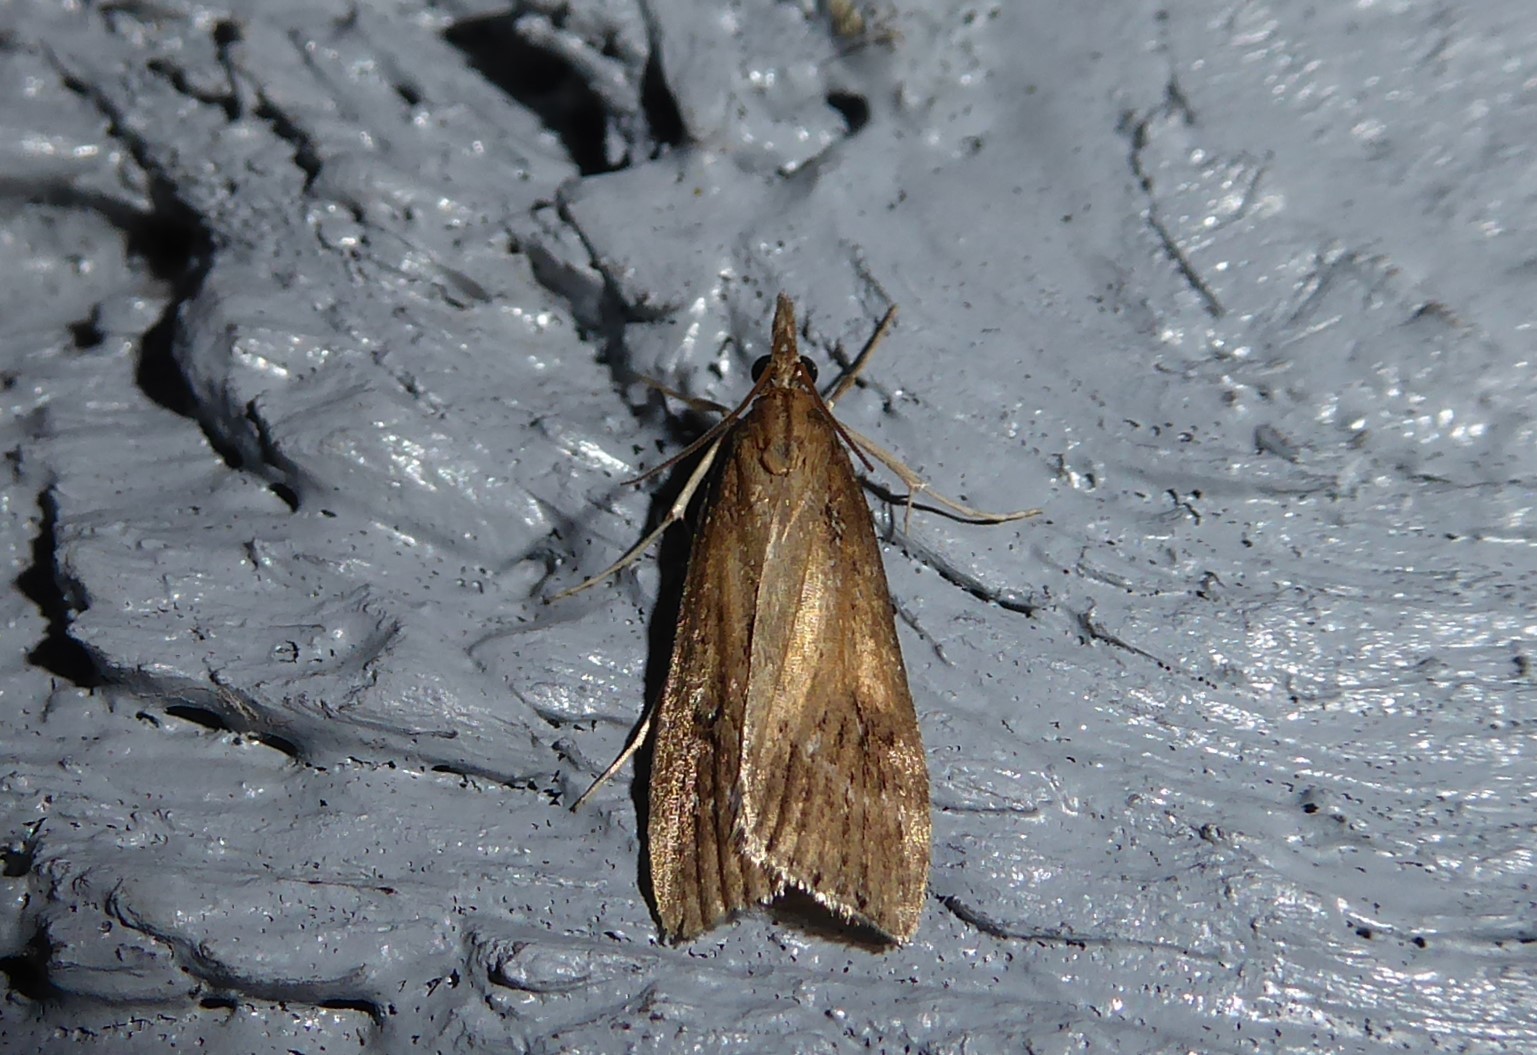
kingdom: Animalia
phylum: Arthropoda
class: Insecta
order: Lepidoptera
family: Crambidae
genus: Eudonia
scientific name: Eudonia octophora
